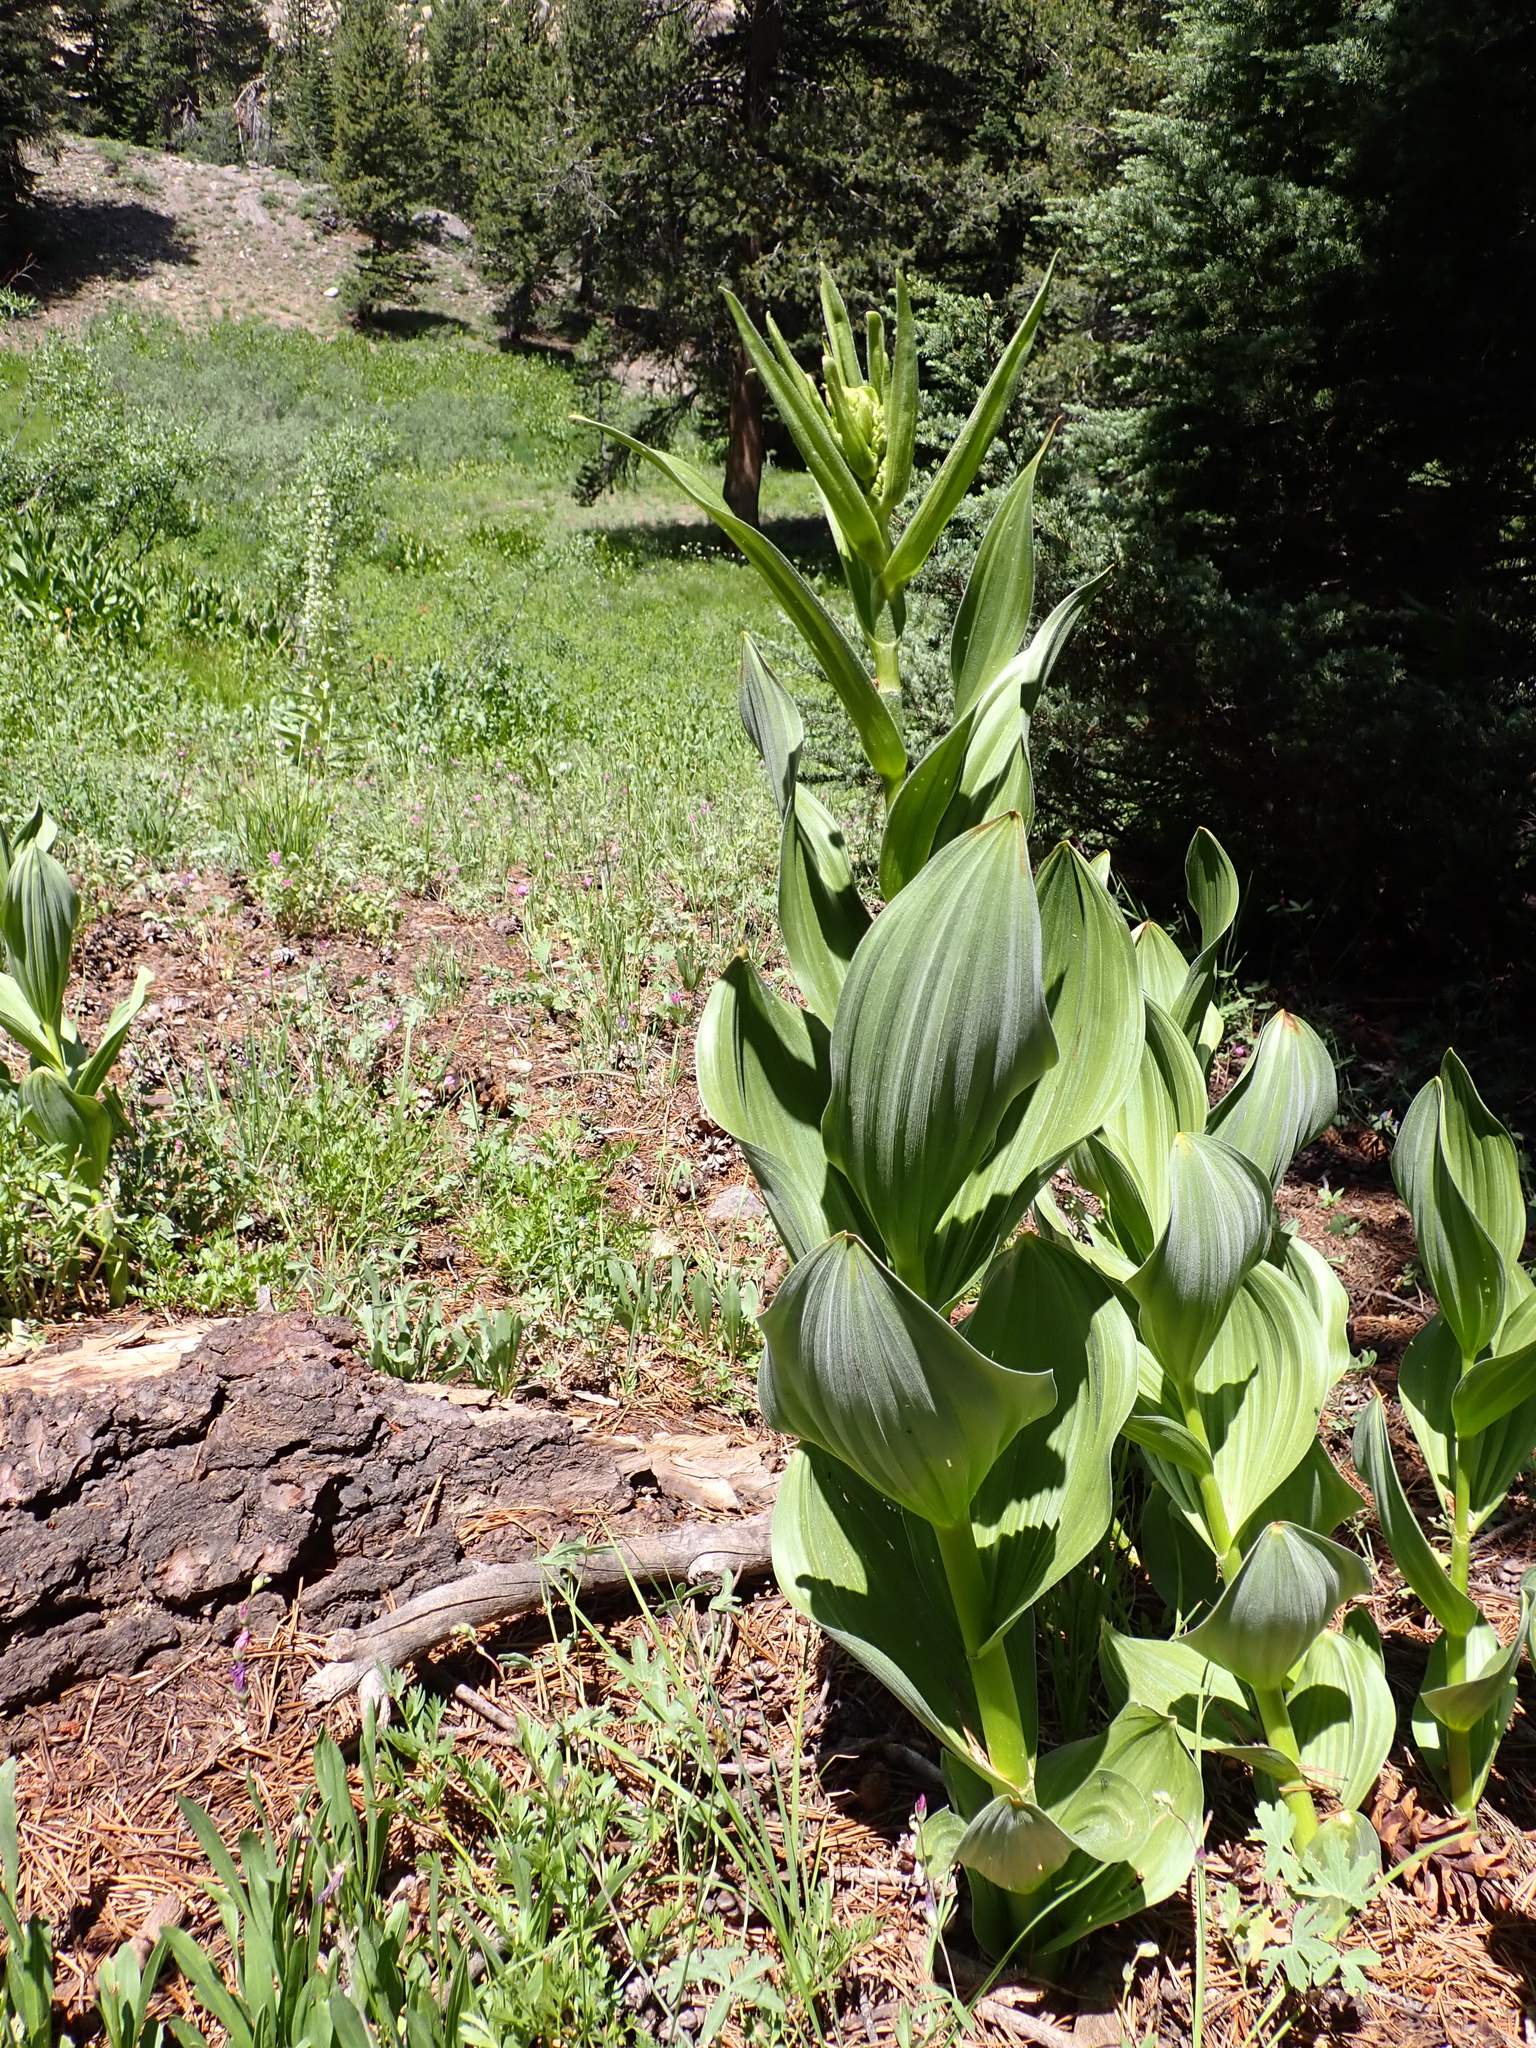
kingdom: Plantae
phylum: Tracheophyta
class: Liliopsida
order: Liliales
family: Melanthiaceae
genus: Veratrum
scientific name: Veratrum californicum
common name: California veratrum
